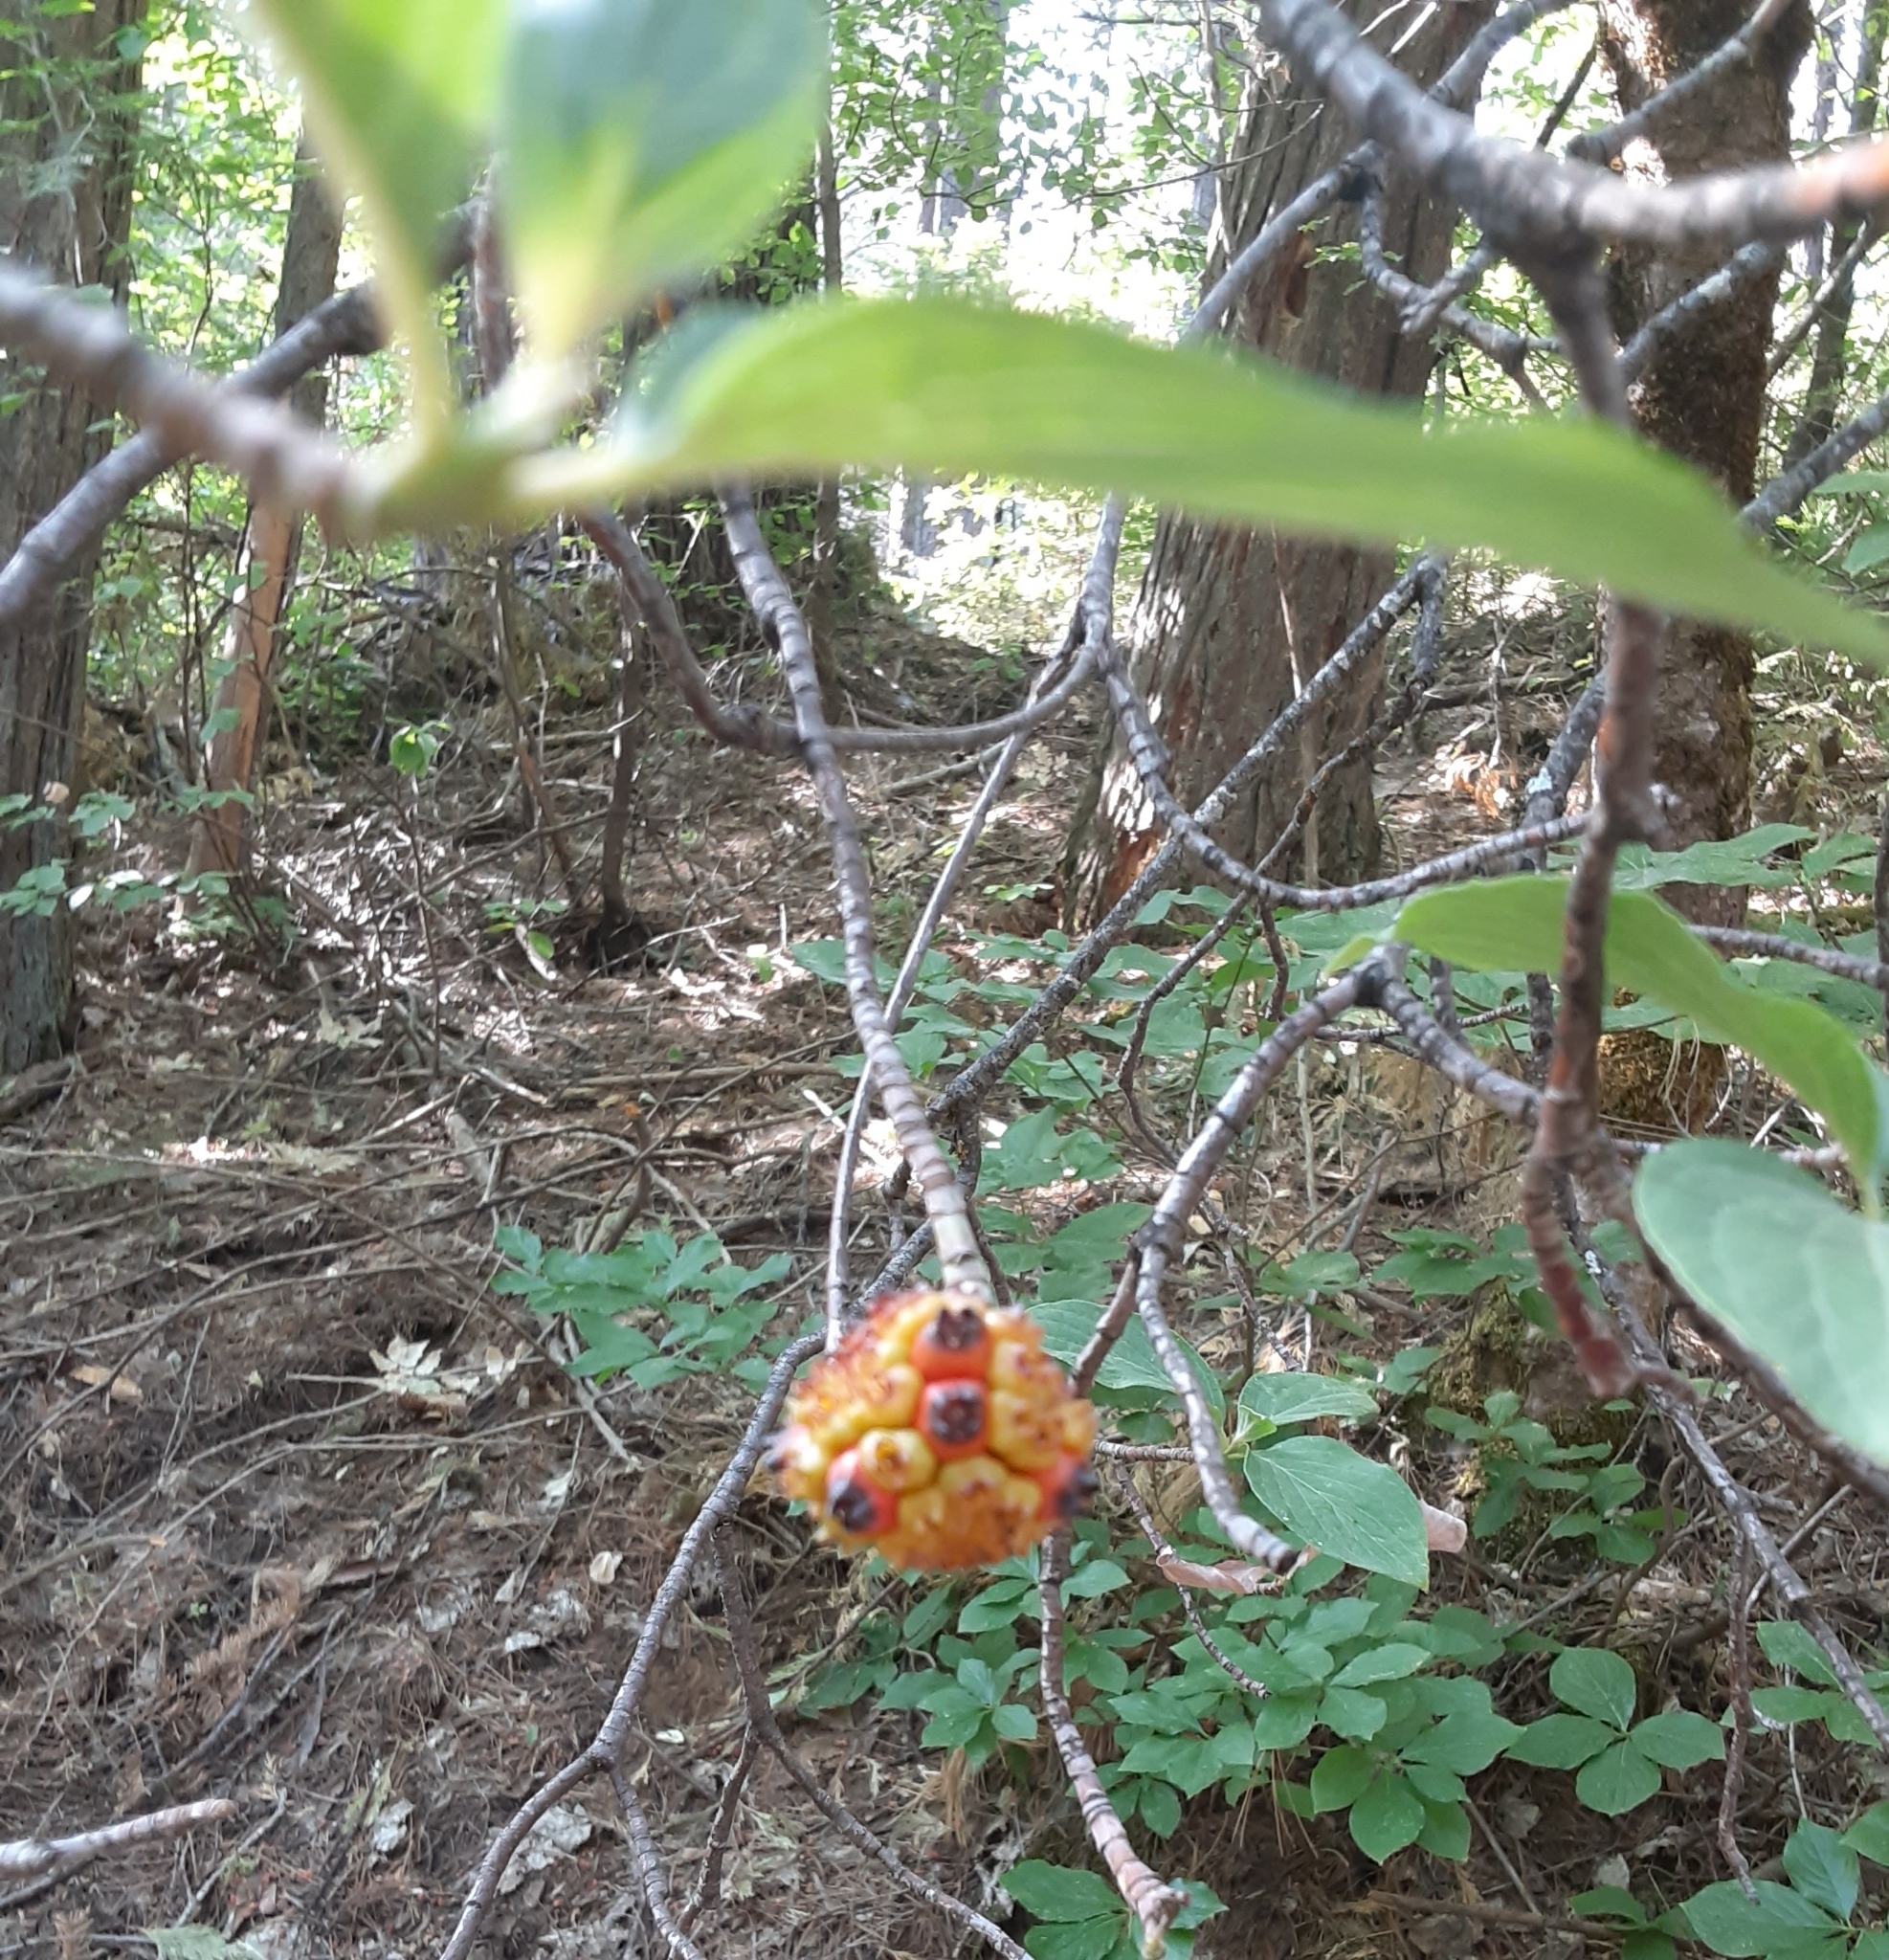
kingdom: Plantae
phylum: Tracheophyta
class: Magnoliopsida
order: Cornales
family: Cornaceae
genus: Cornus
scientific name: Cornus nuttallii
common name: Pacific dogwood
